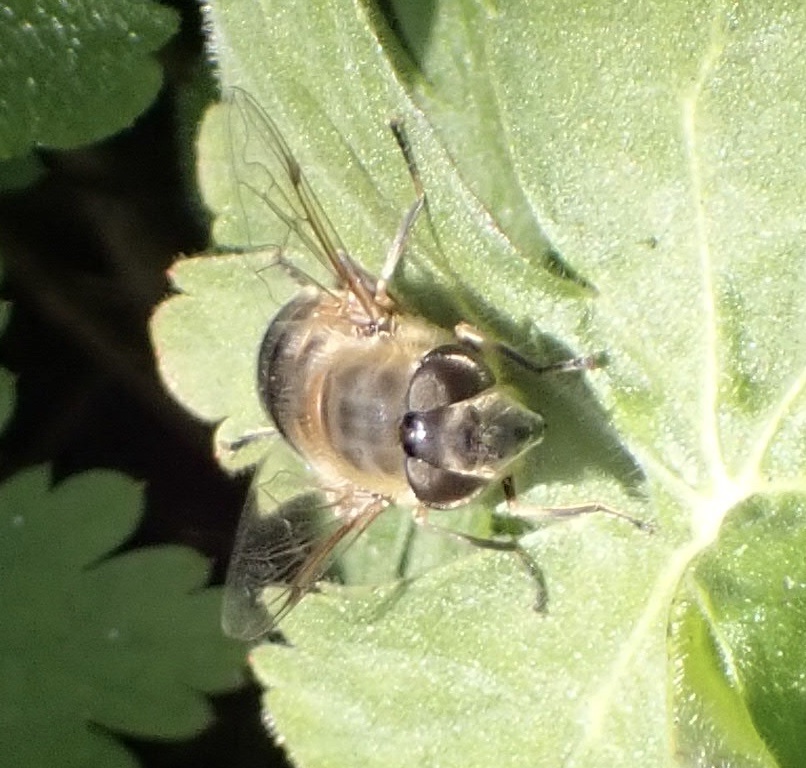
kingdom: Animalia
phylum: Arthropoda
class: Insecta
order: Diptera
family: Syrphidae
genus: Eristalis
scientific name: Eristalis pertinax
